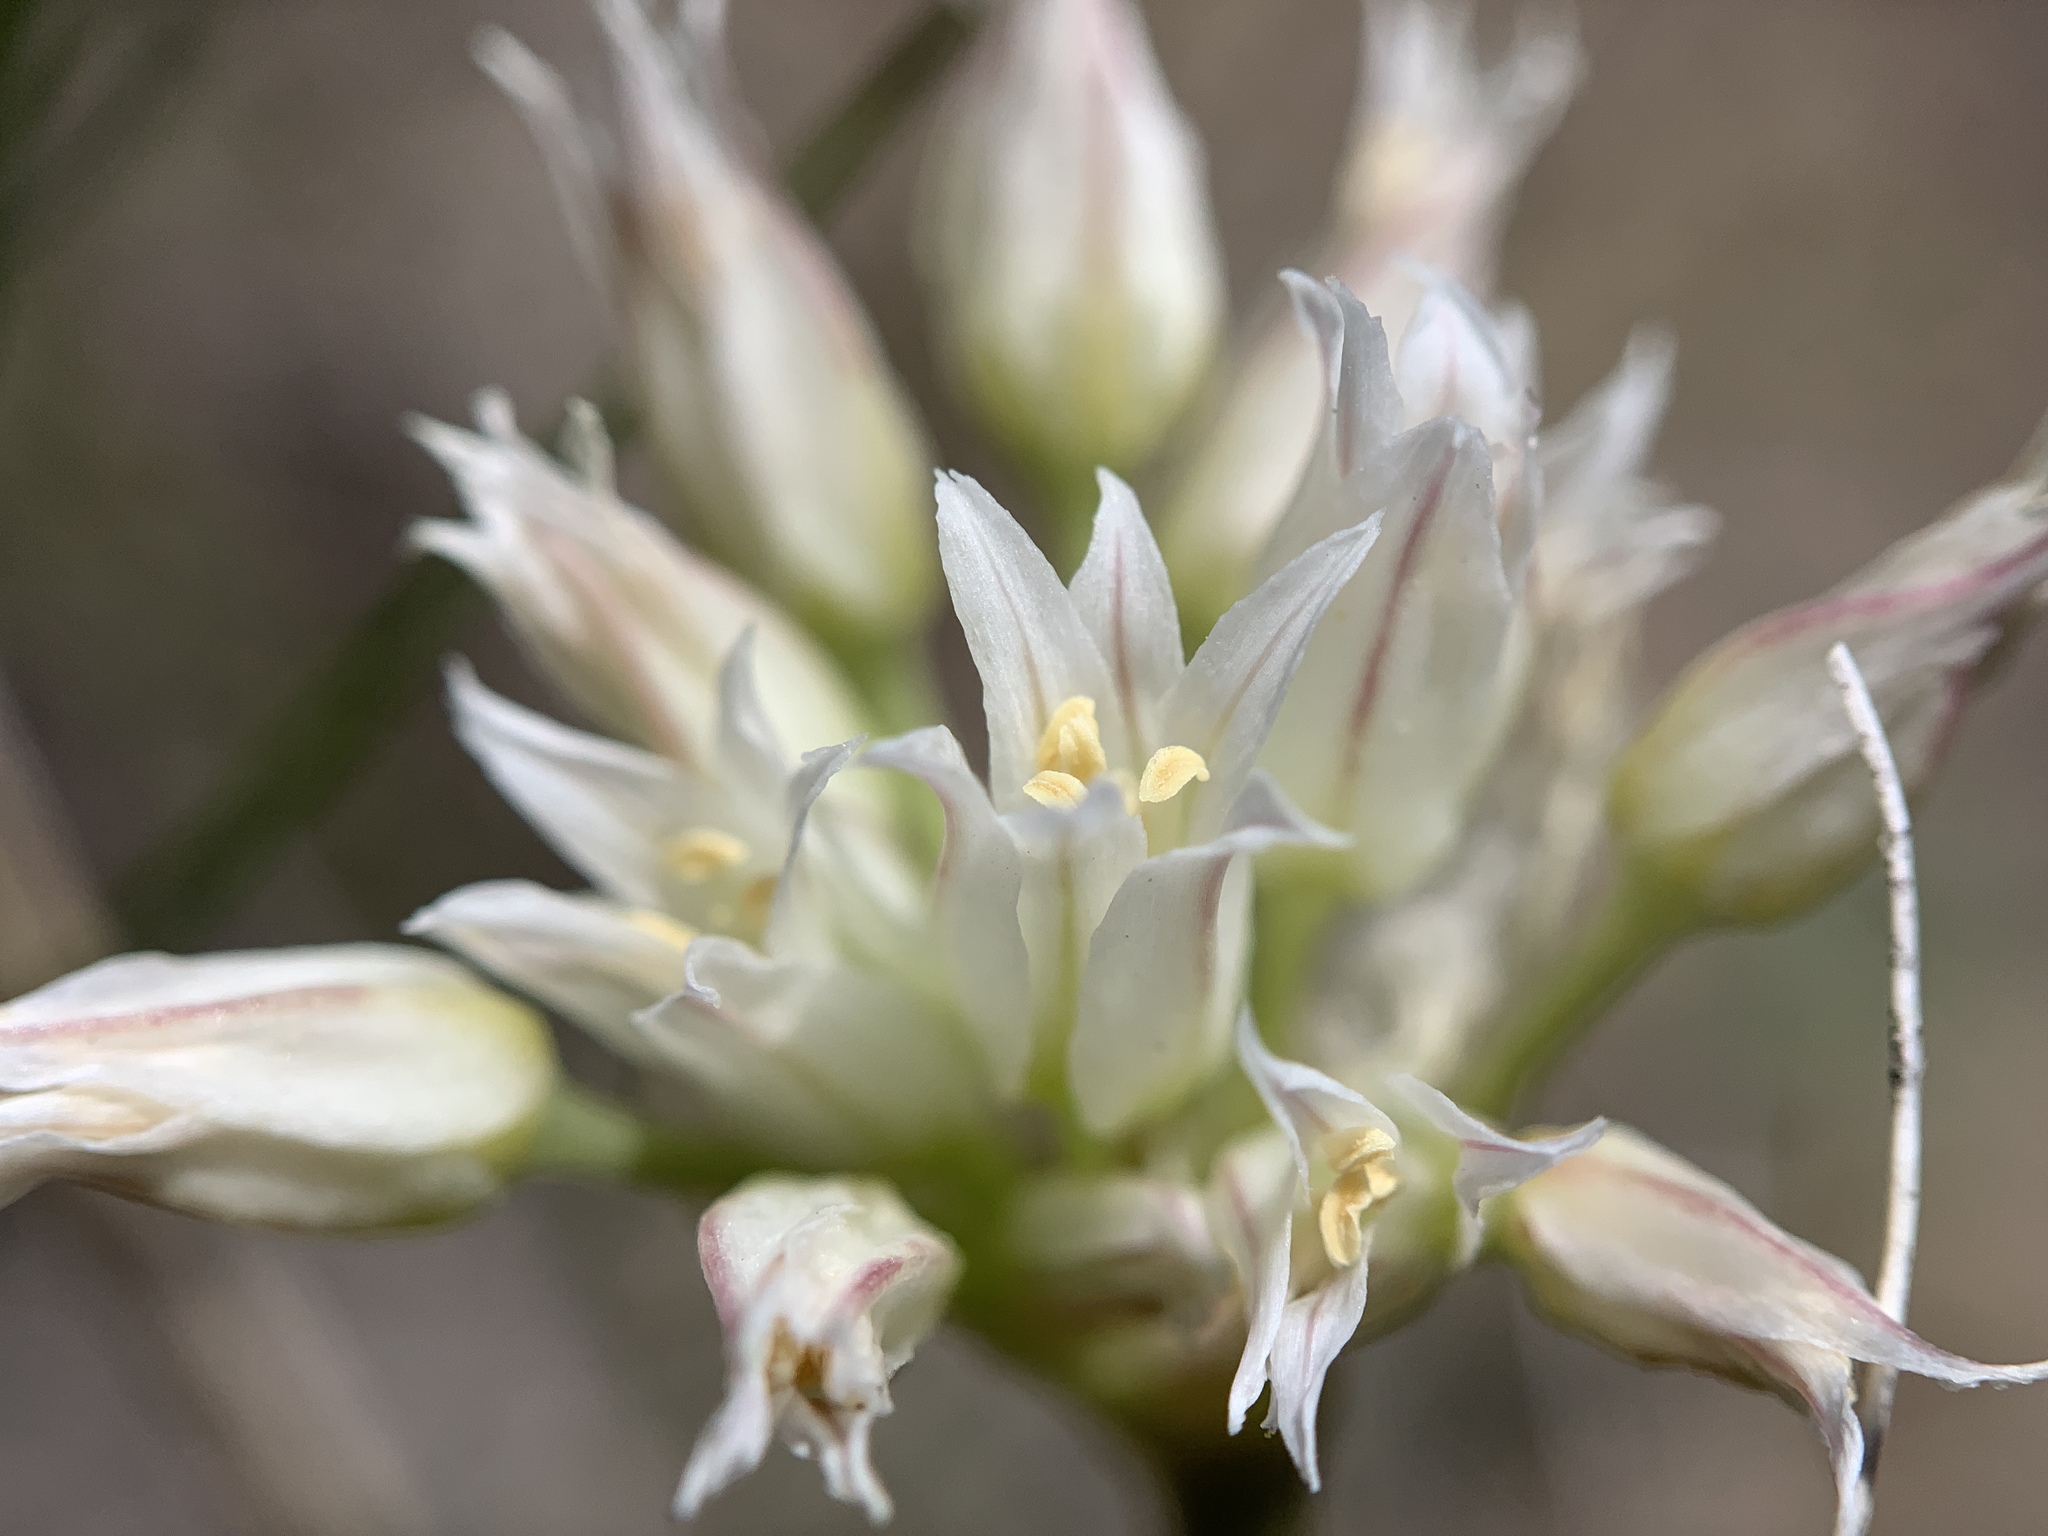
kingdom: Plantae
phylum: Tracheophyta
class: Liliopsida
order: Asparagales
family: Amaryllidaceae
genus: Allium
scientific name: Allium textile
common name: Prairie onion
